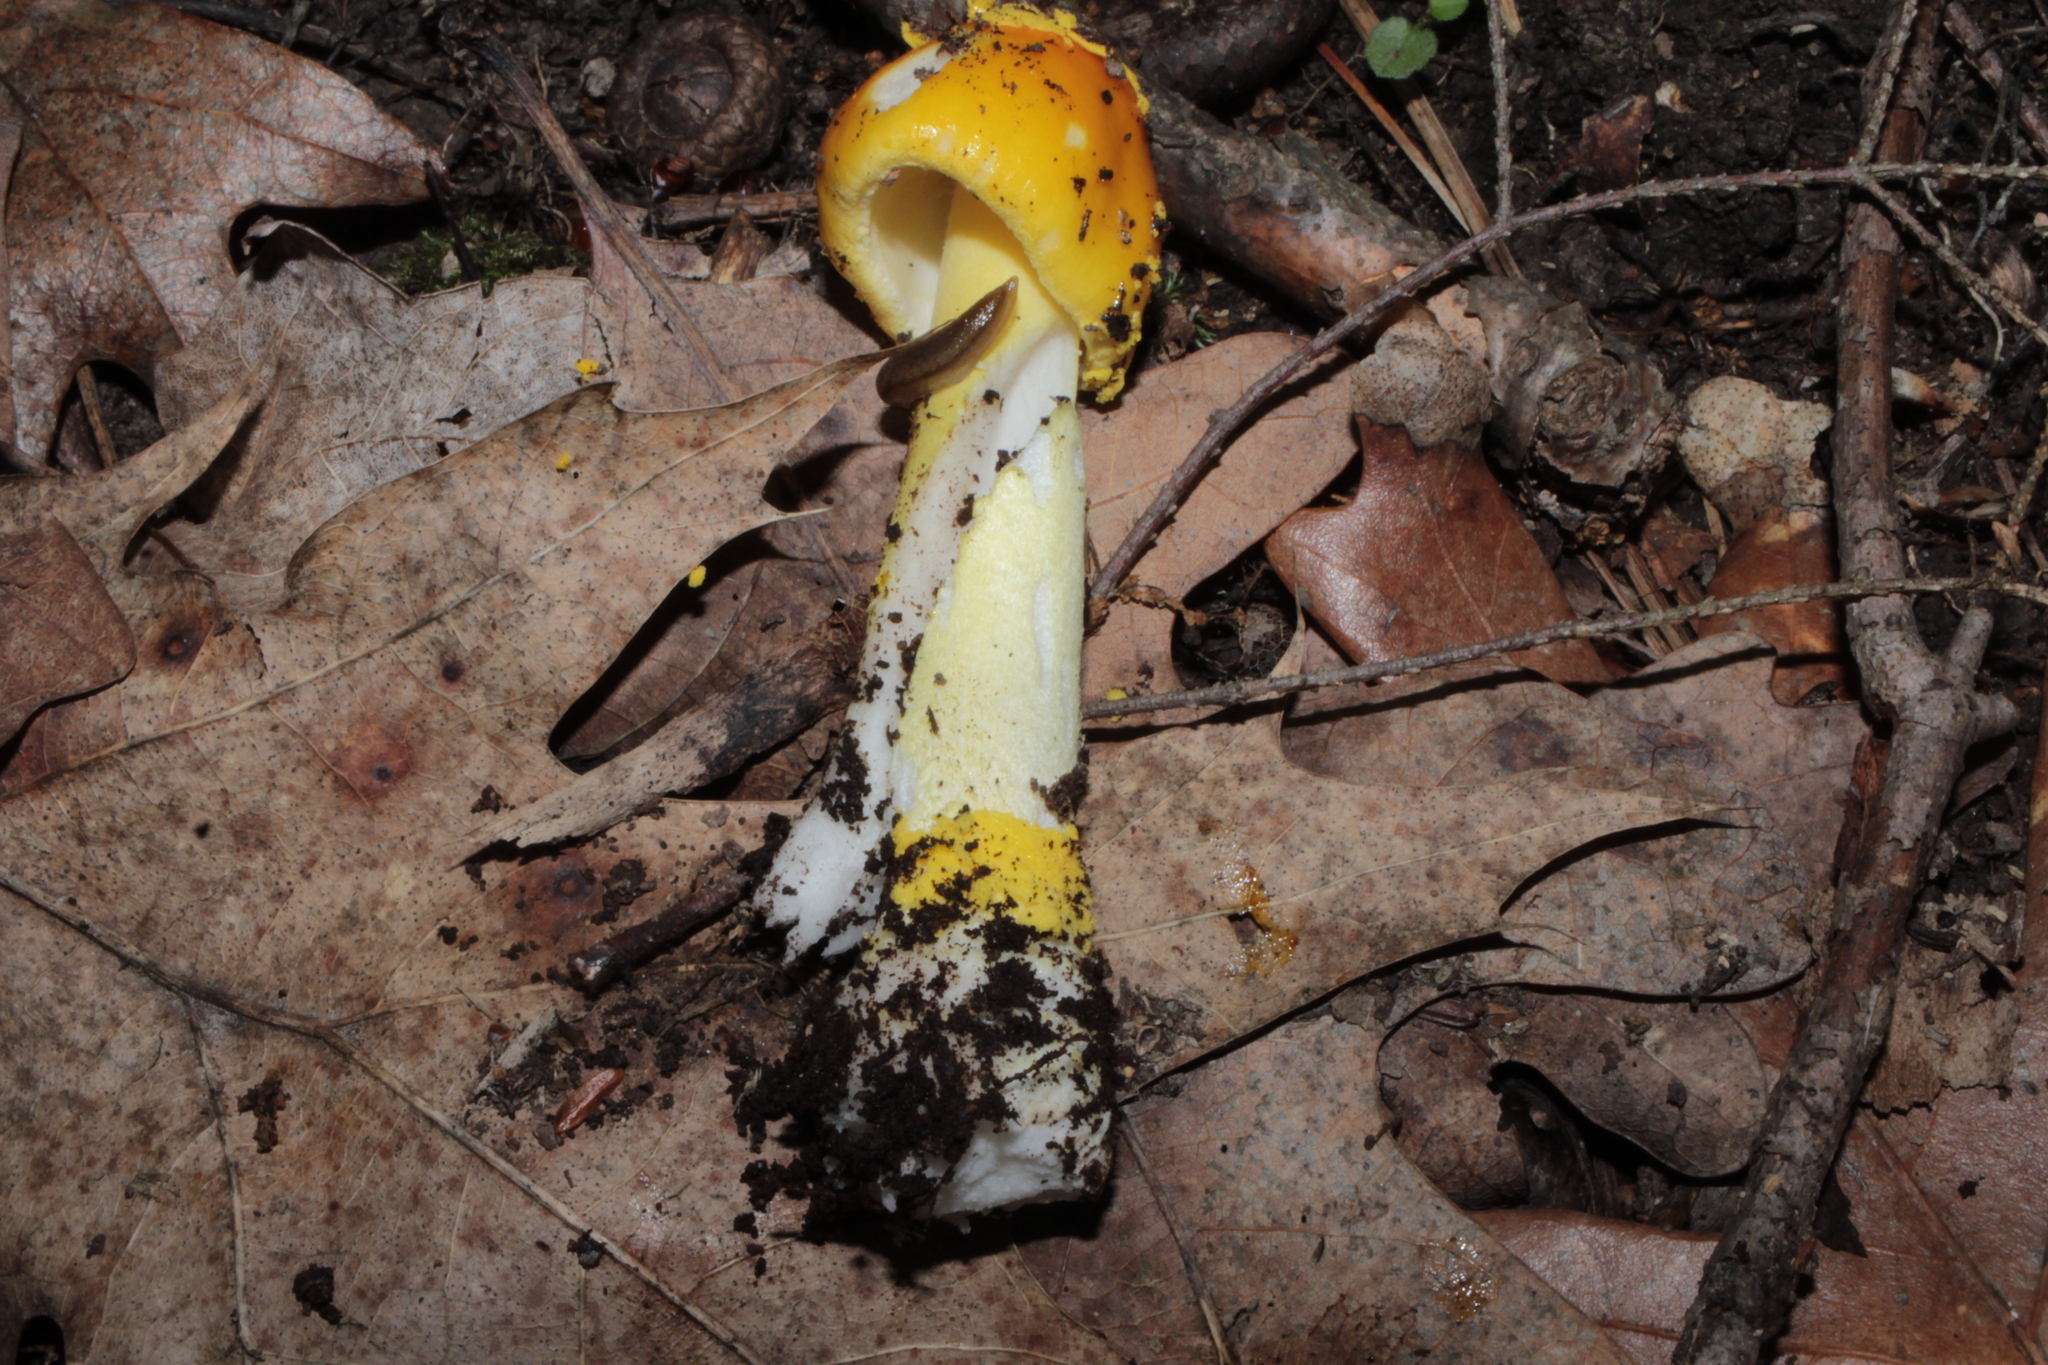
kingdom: Fungi
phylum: Basidiomycota
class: Agaricomycetes
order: Agaricales
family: Amanitaceae
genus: Amanita
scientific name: Amanita flavoconia
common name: Yellow patches
